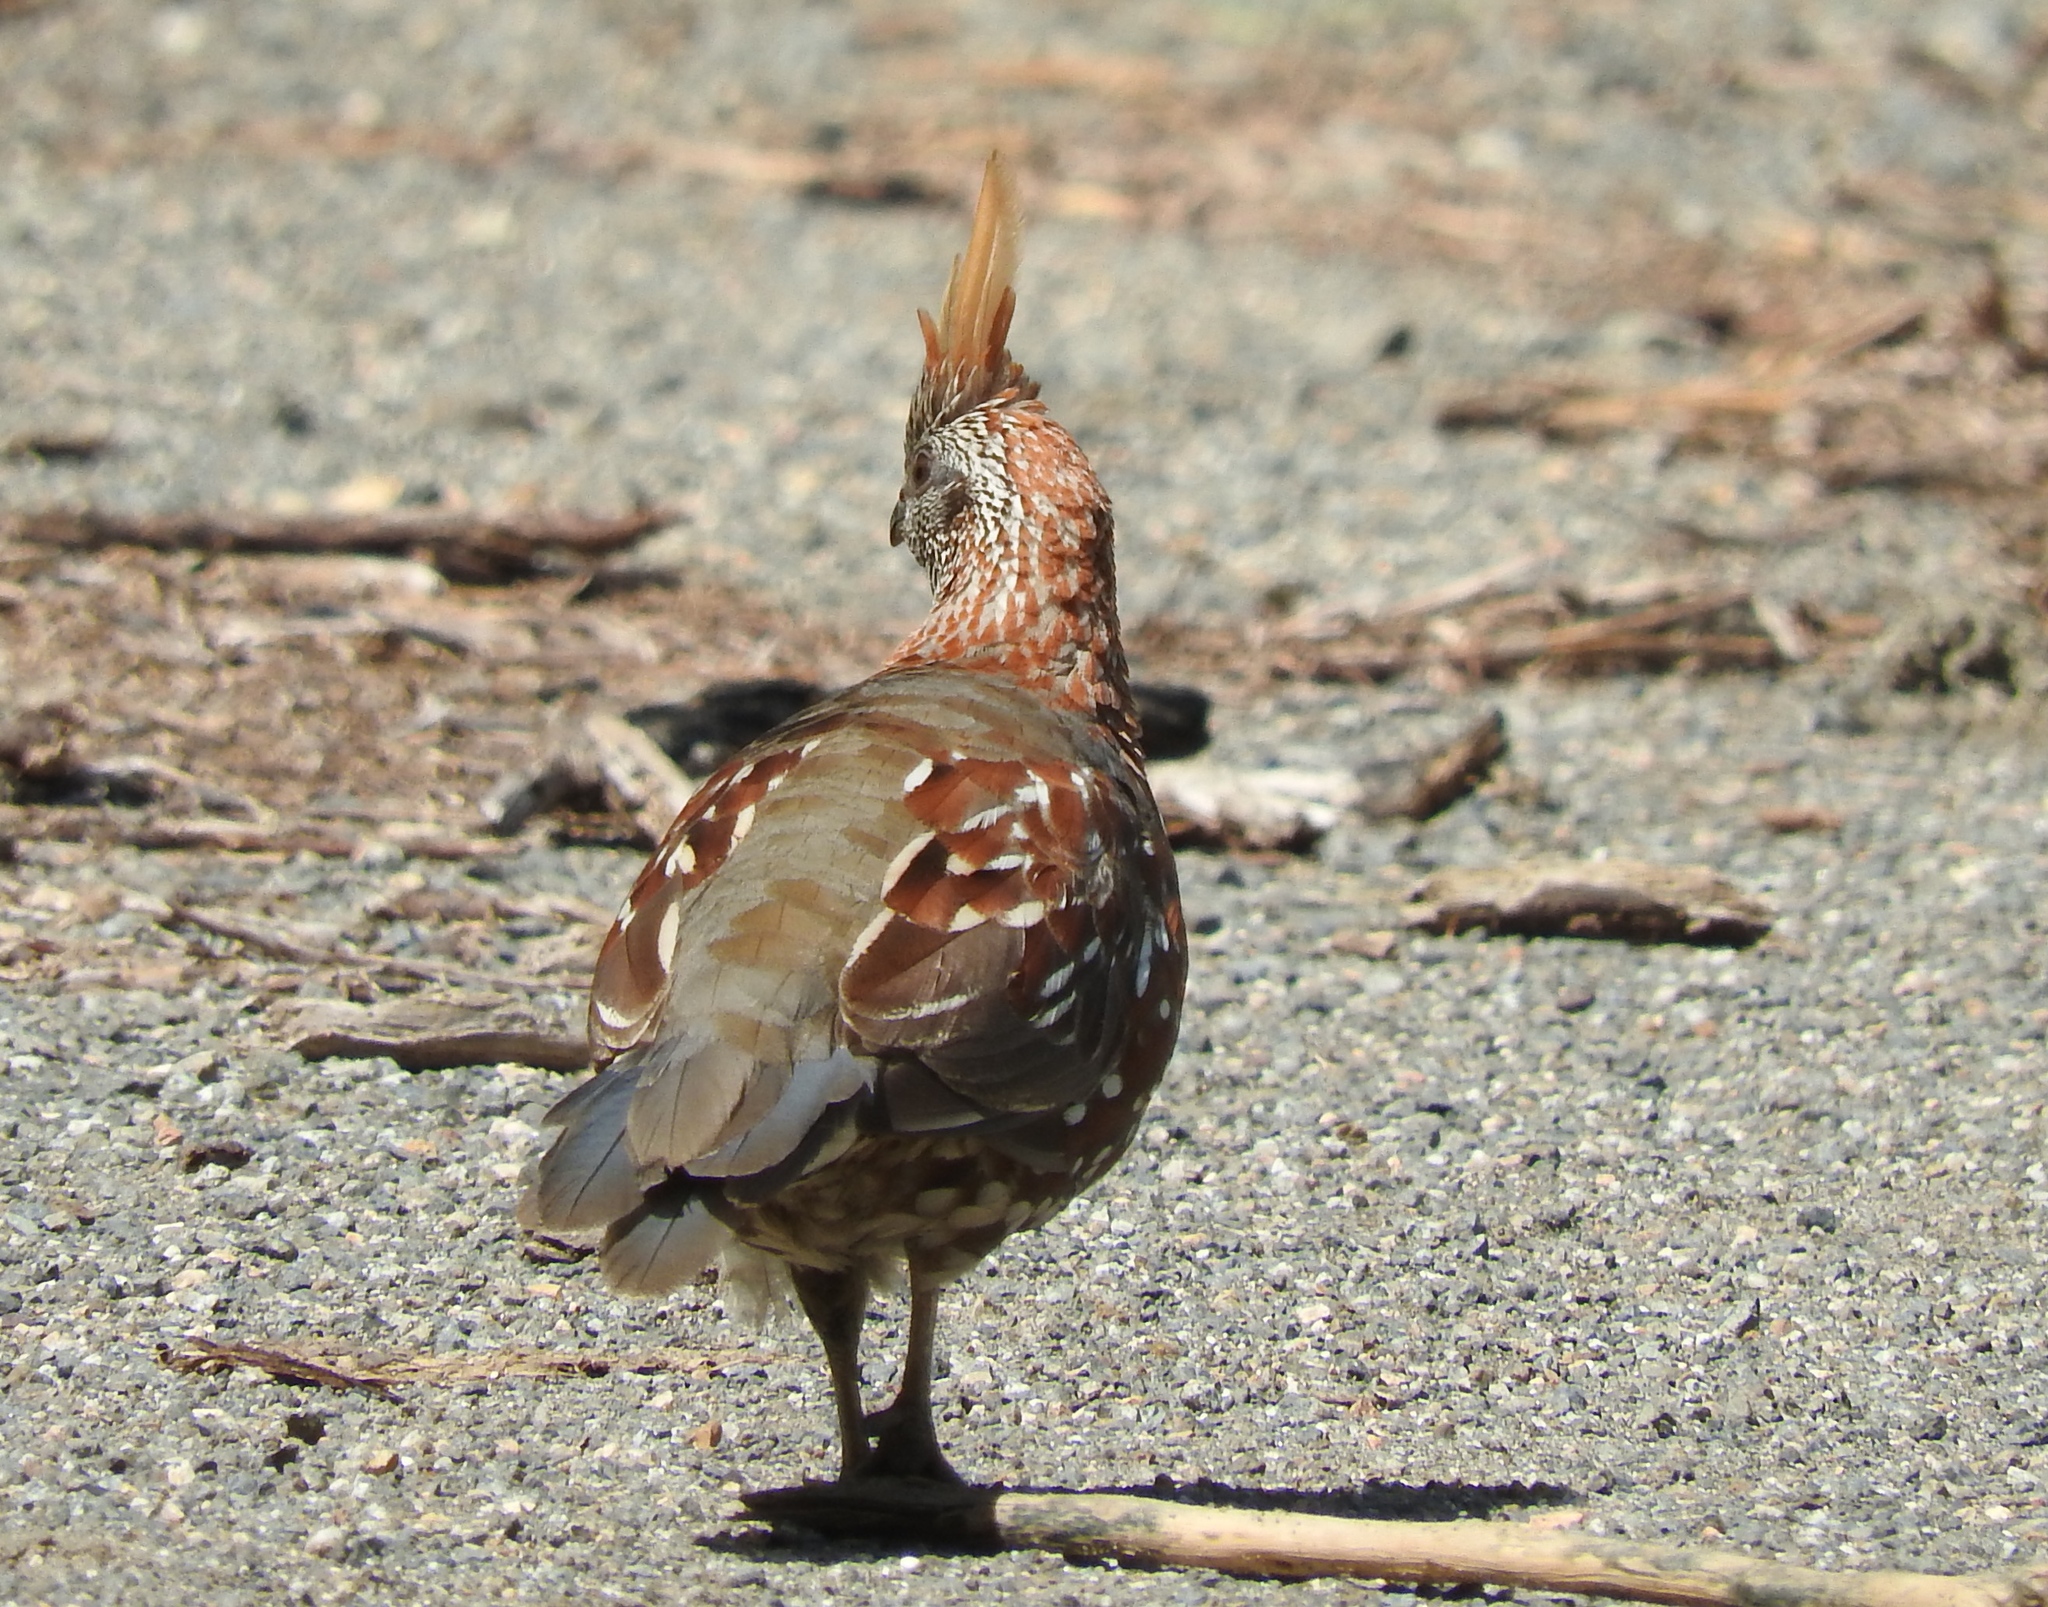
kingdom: Animalia
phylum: Chordata
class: Aves
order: Galliformes
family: Odontophoridae
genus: Callipepla
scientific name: Callipepla douglasii
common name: Elegant quail
